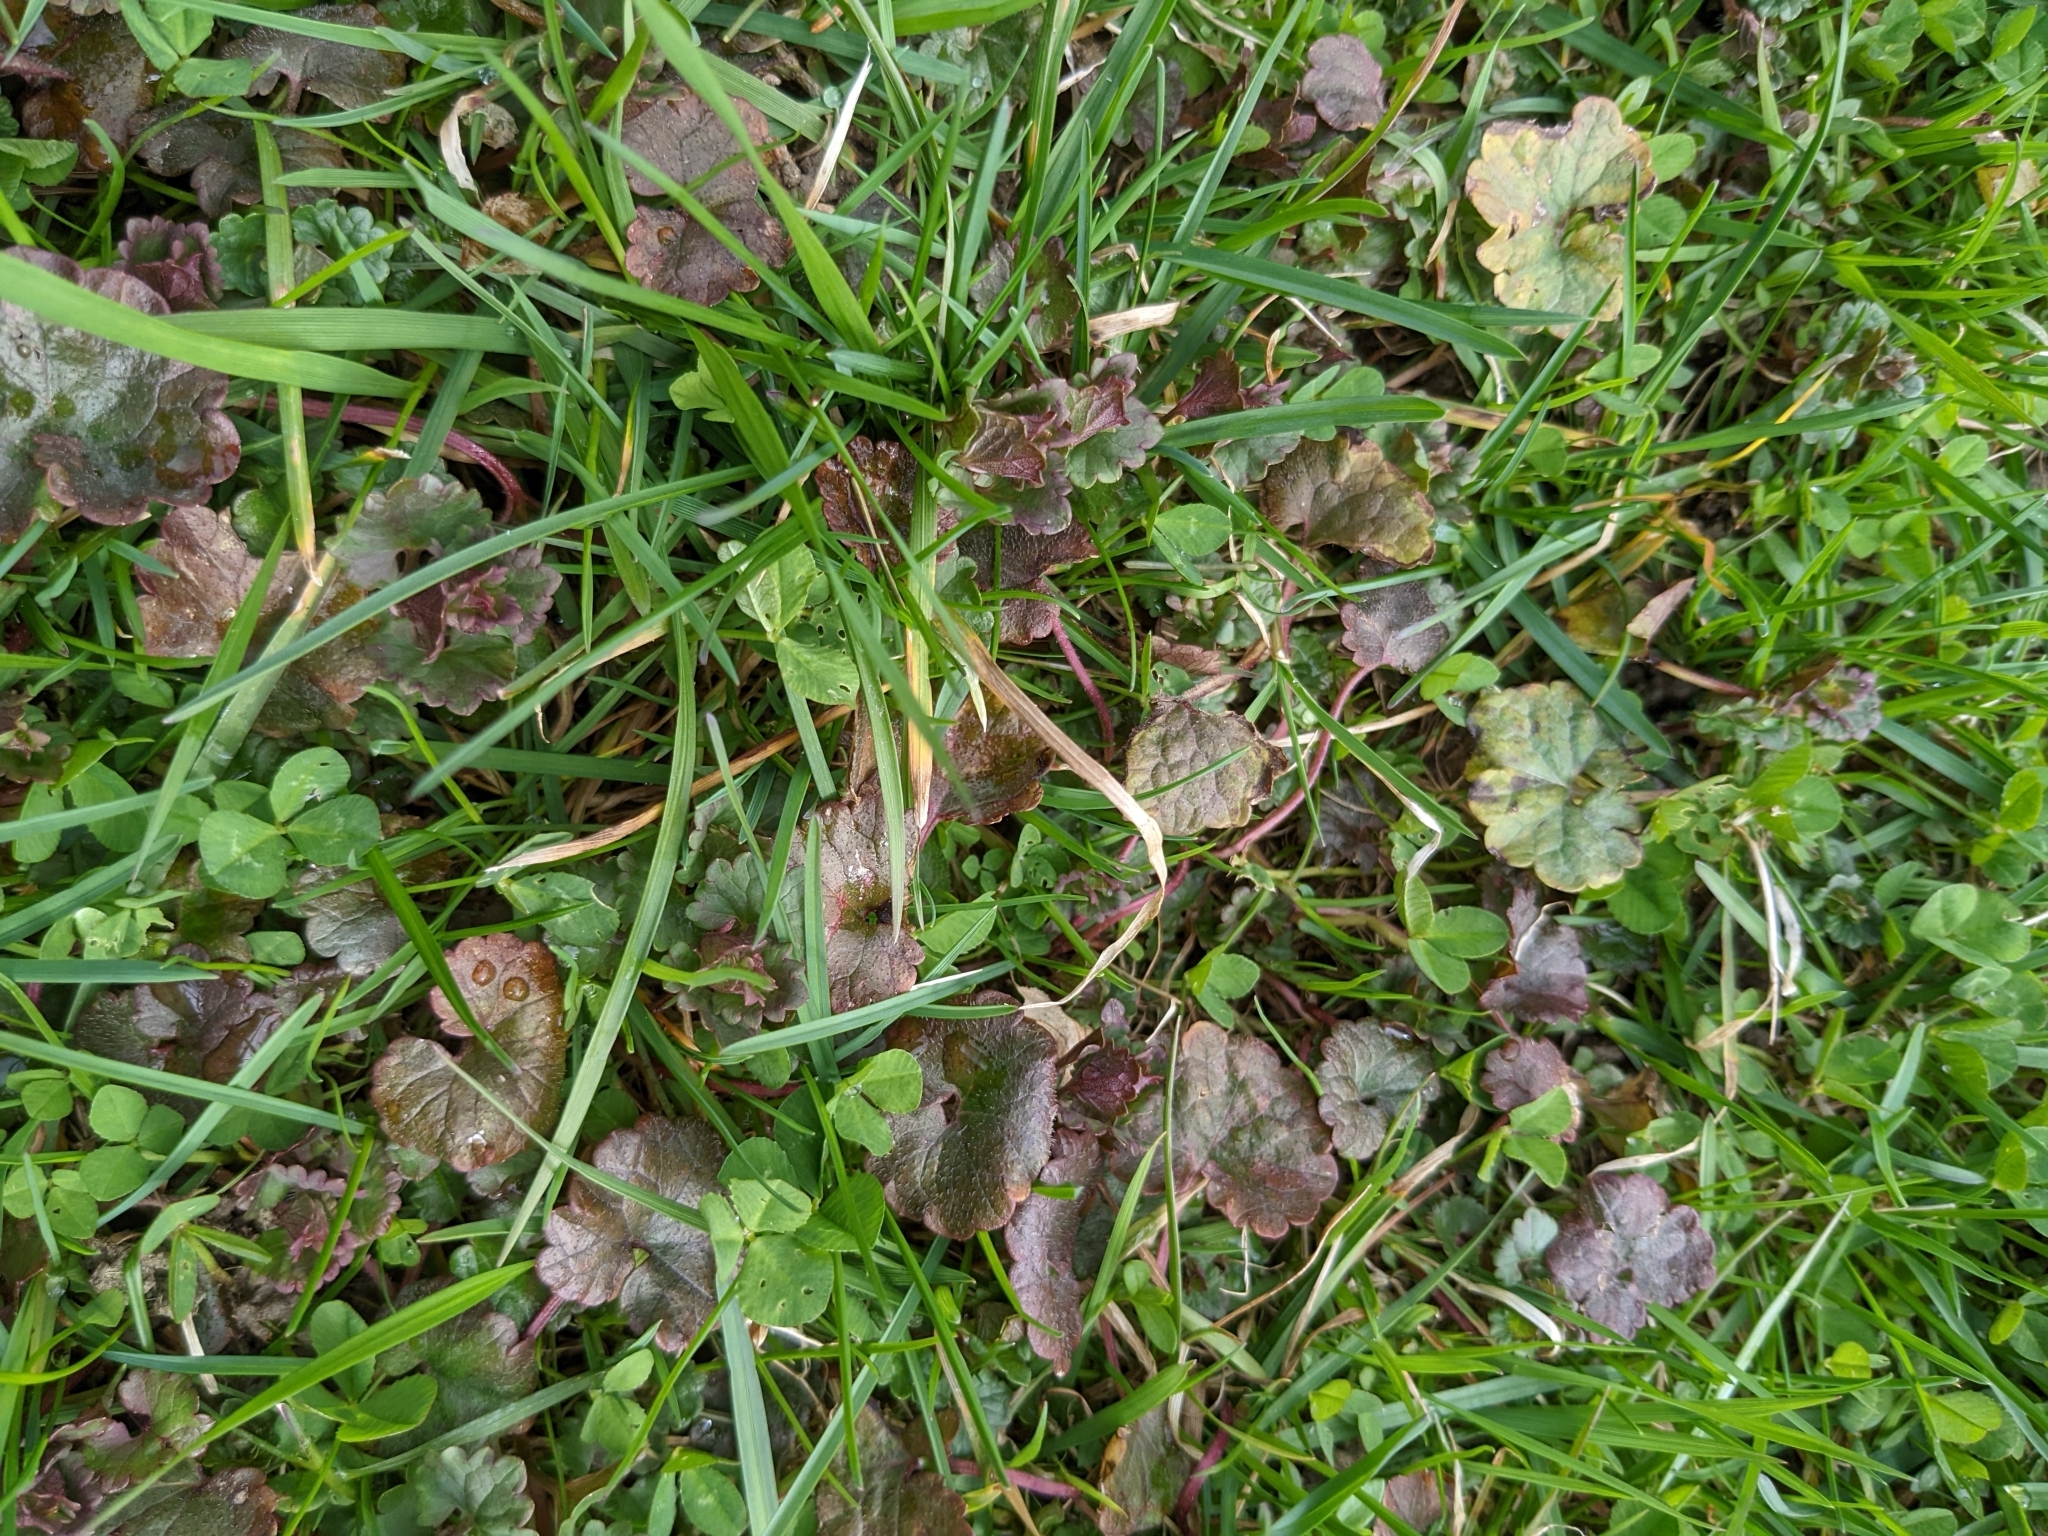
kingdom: Plantae
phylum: Tracheophyta
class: Magnoliopsida
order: Lamiales
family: Lamiaceae
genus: Glechoma
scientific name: Glechoma hederacea
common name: Ground ivy
